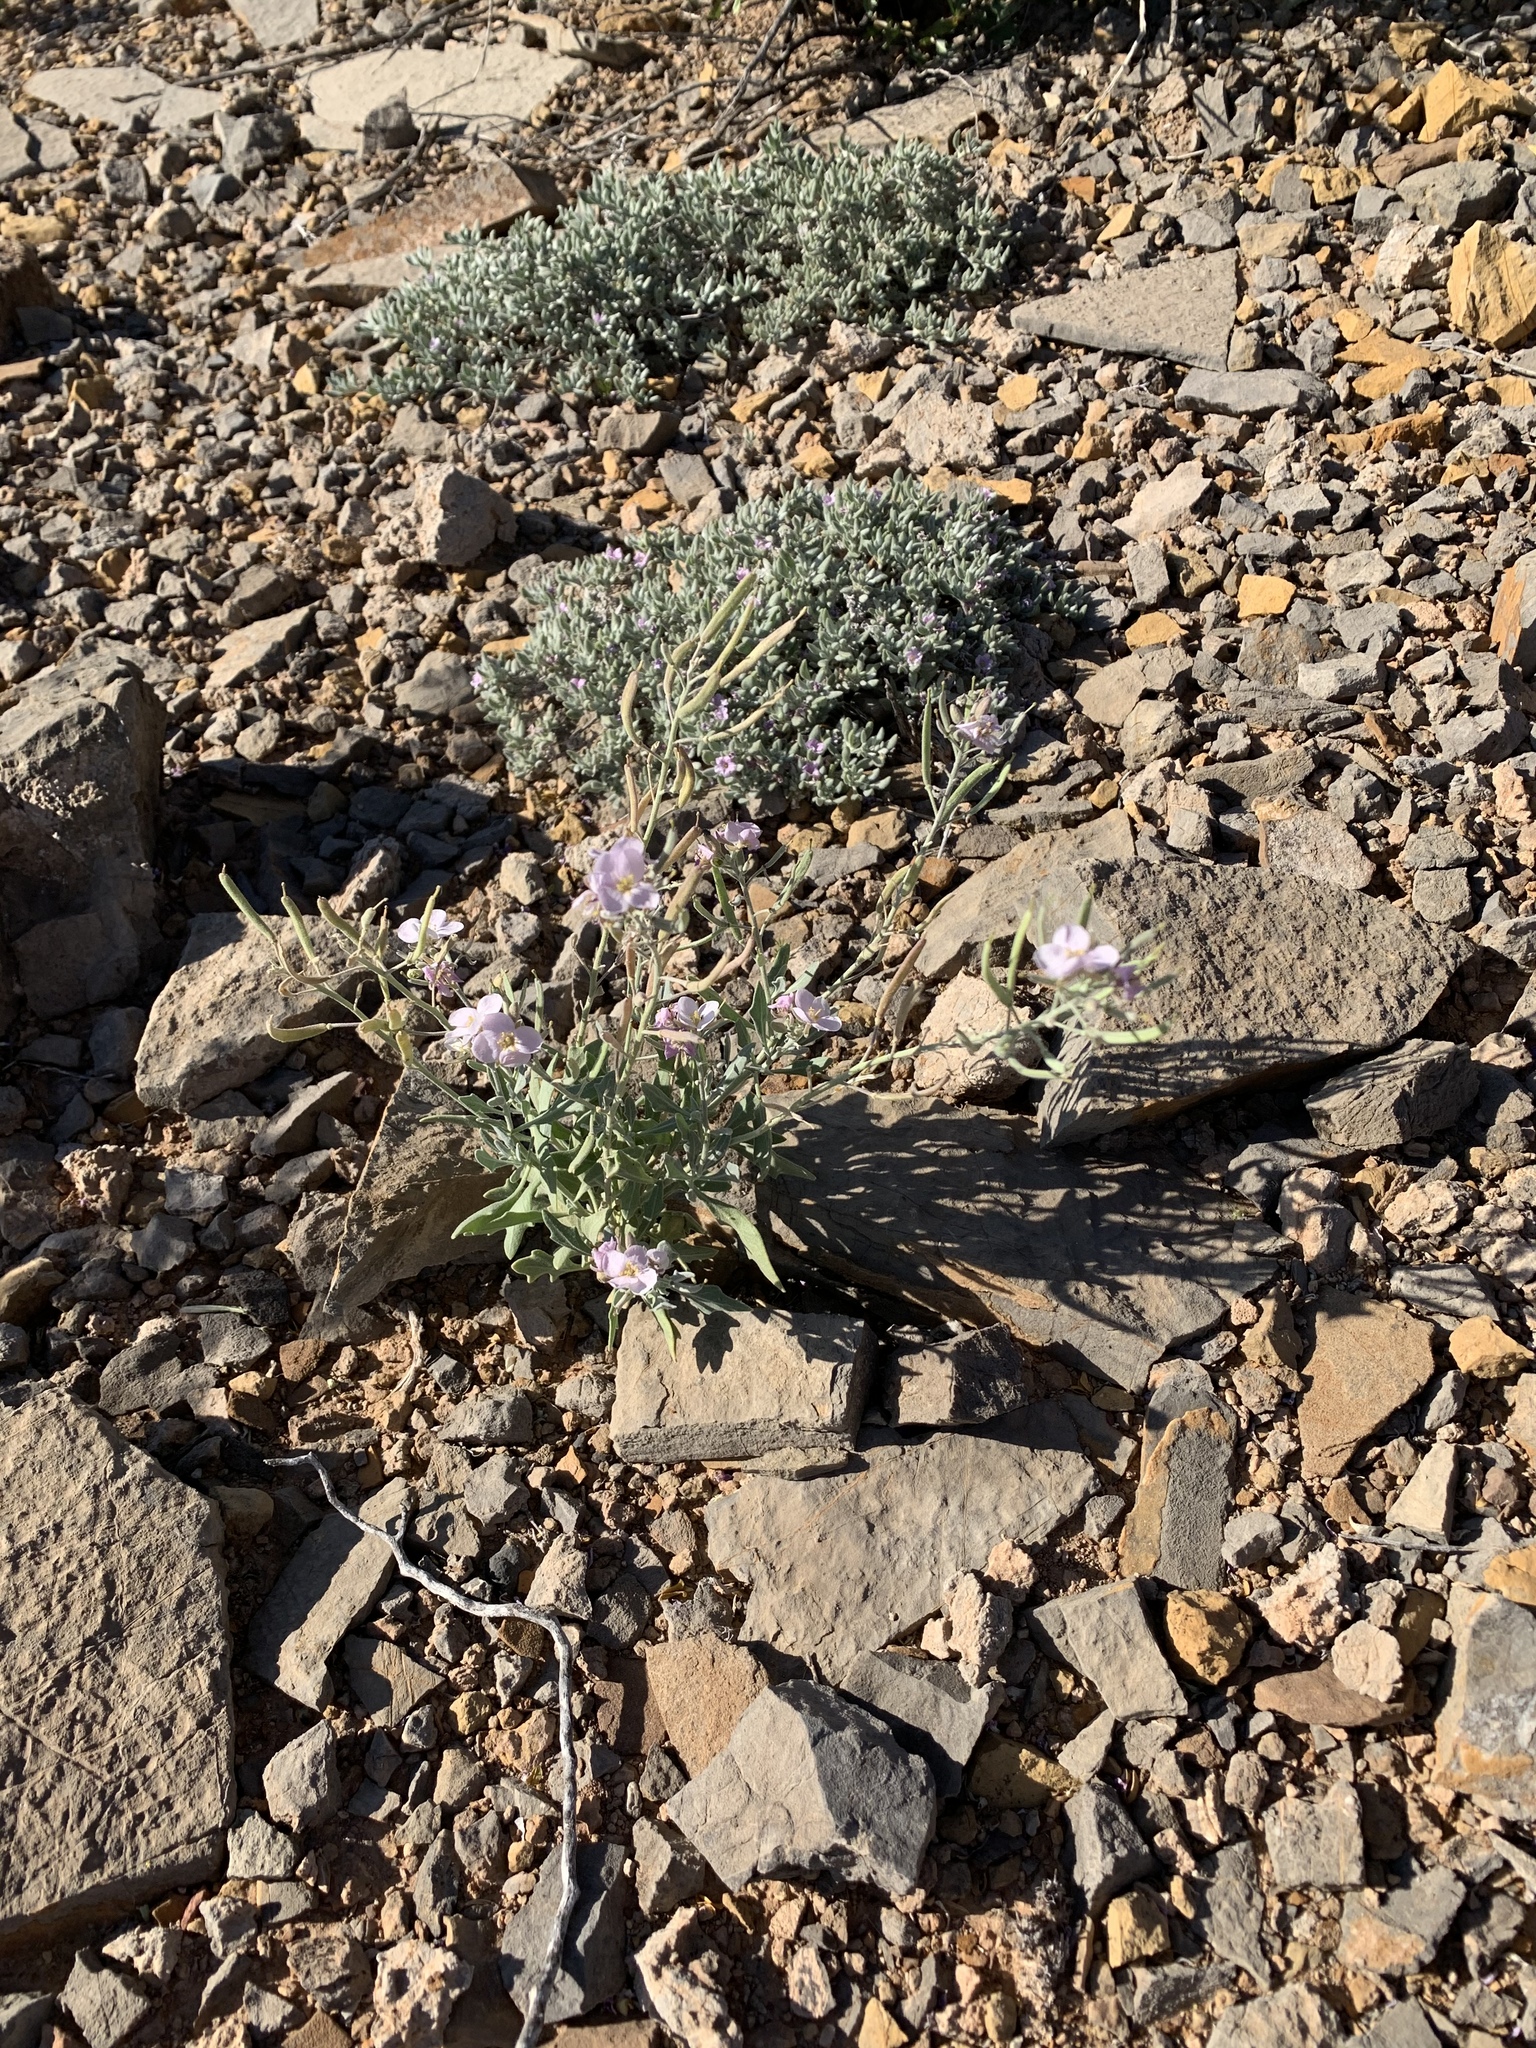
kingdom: Plantae
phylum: Tracheophyta
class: Magnoliopsida
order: Brassicales
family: Brassicaceae
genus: Nerisyrenia
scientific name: Nerisyrenia camporum
